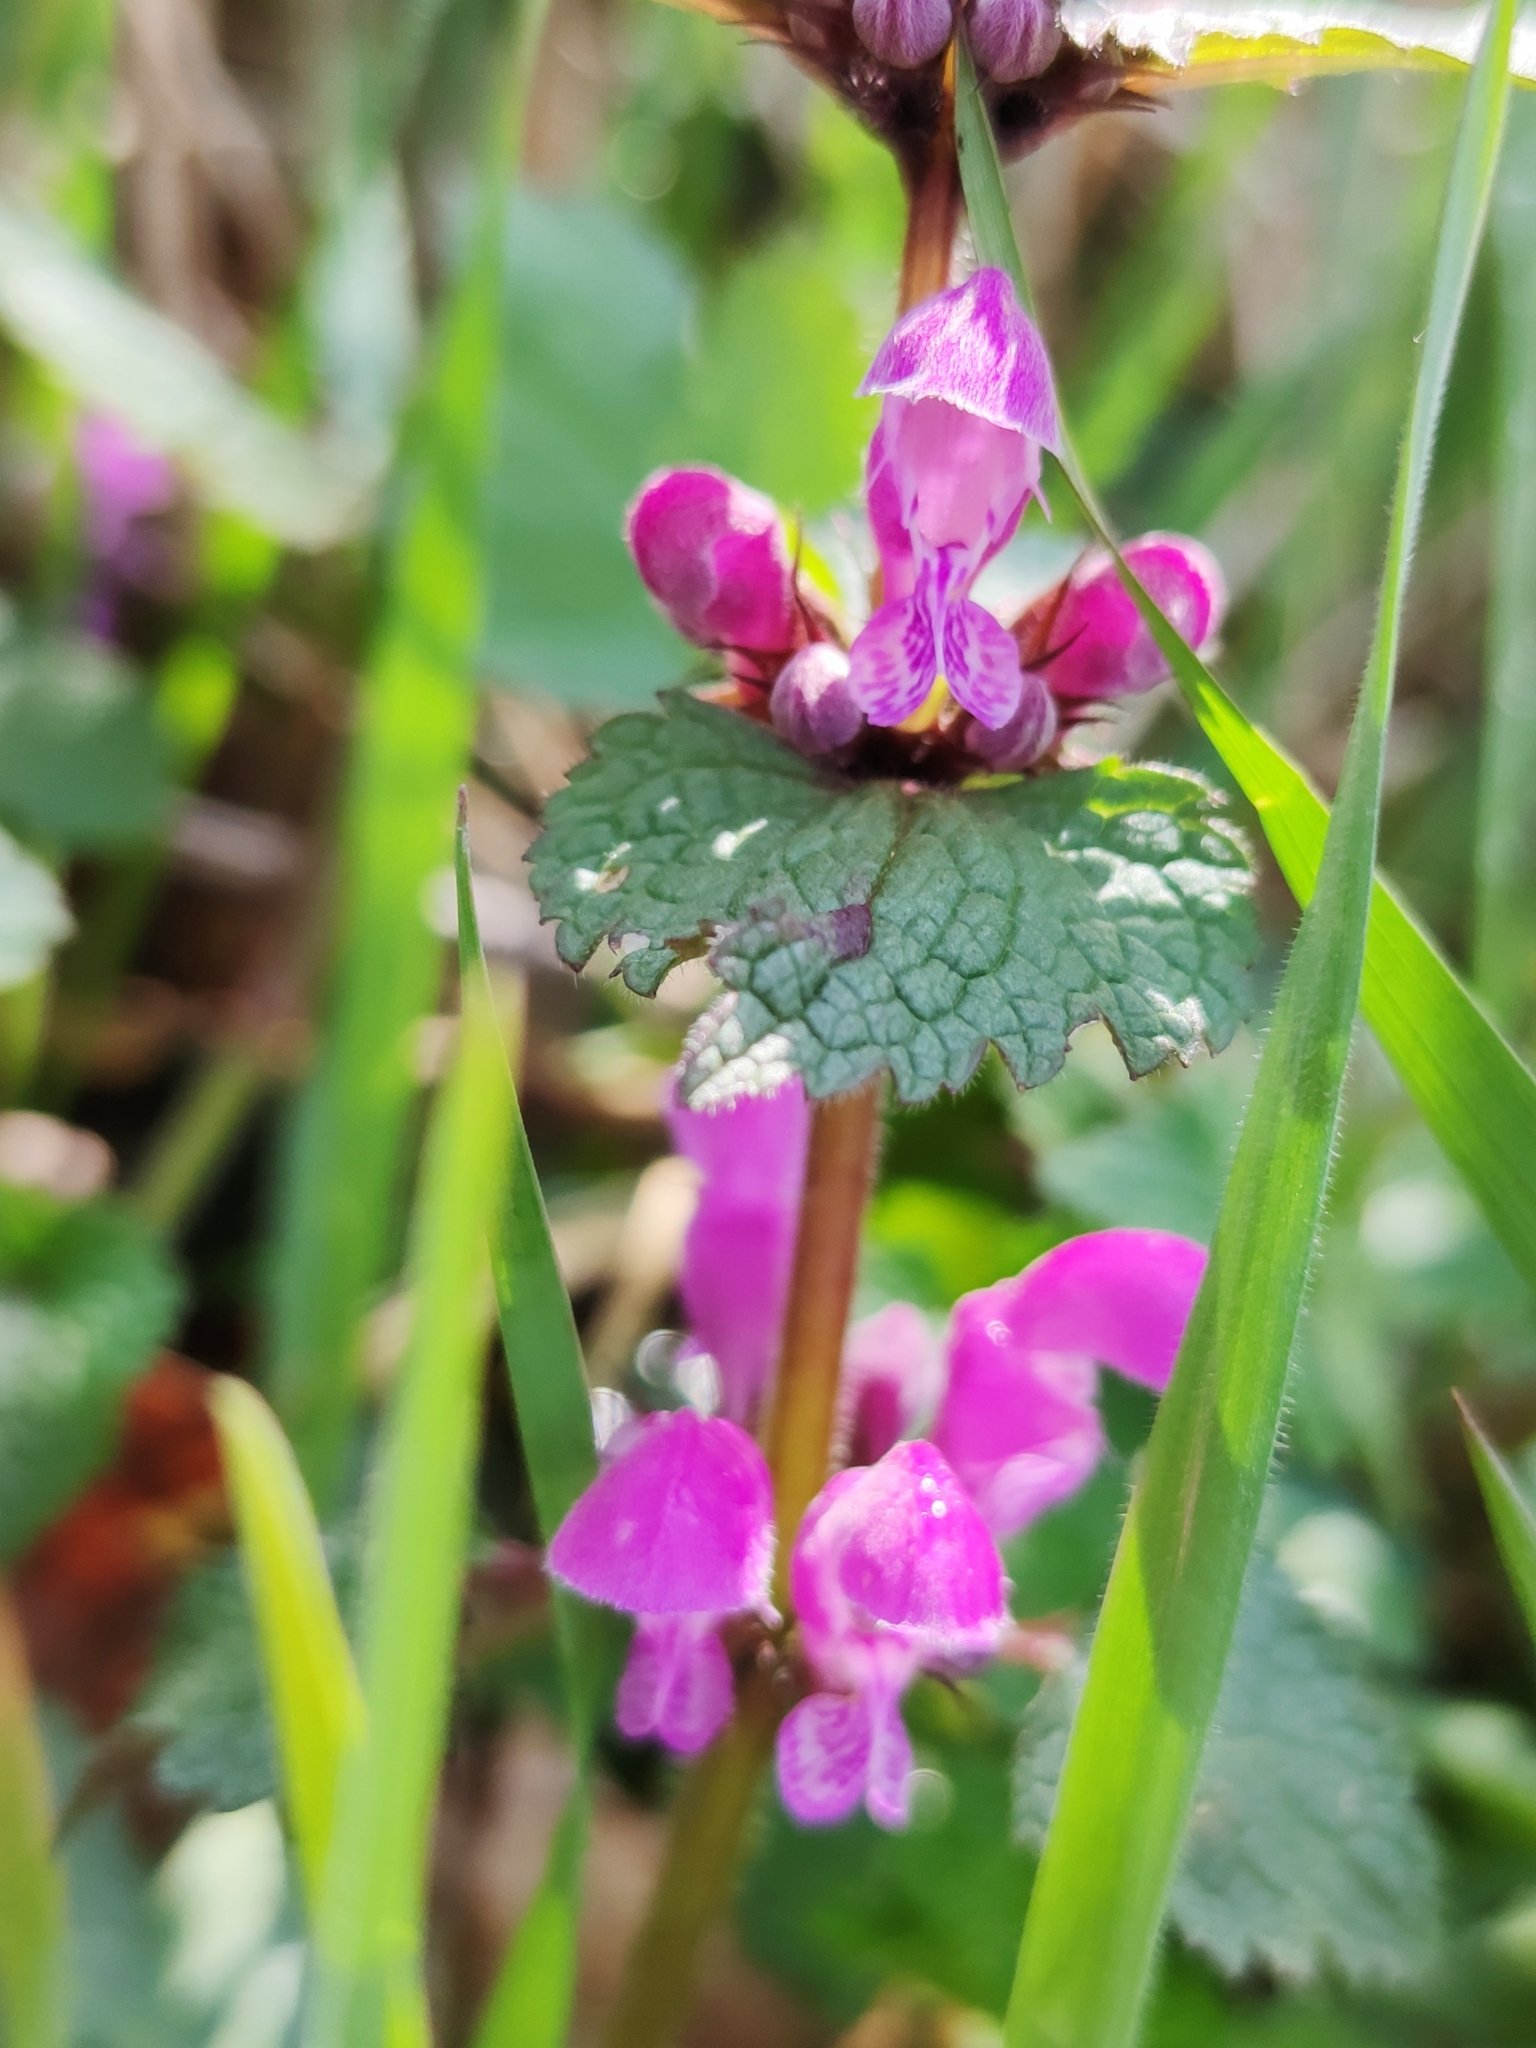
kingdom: Plantae
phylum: Tracheophyta
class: Magnoliopsida
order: Lamiales
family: Lamiaceae
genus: Lamium
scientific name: Lamium maculatum
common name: Spotted dead-nettle
